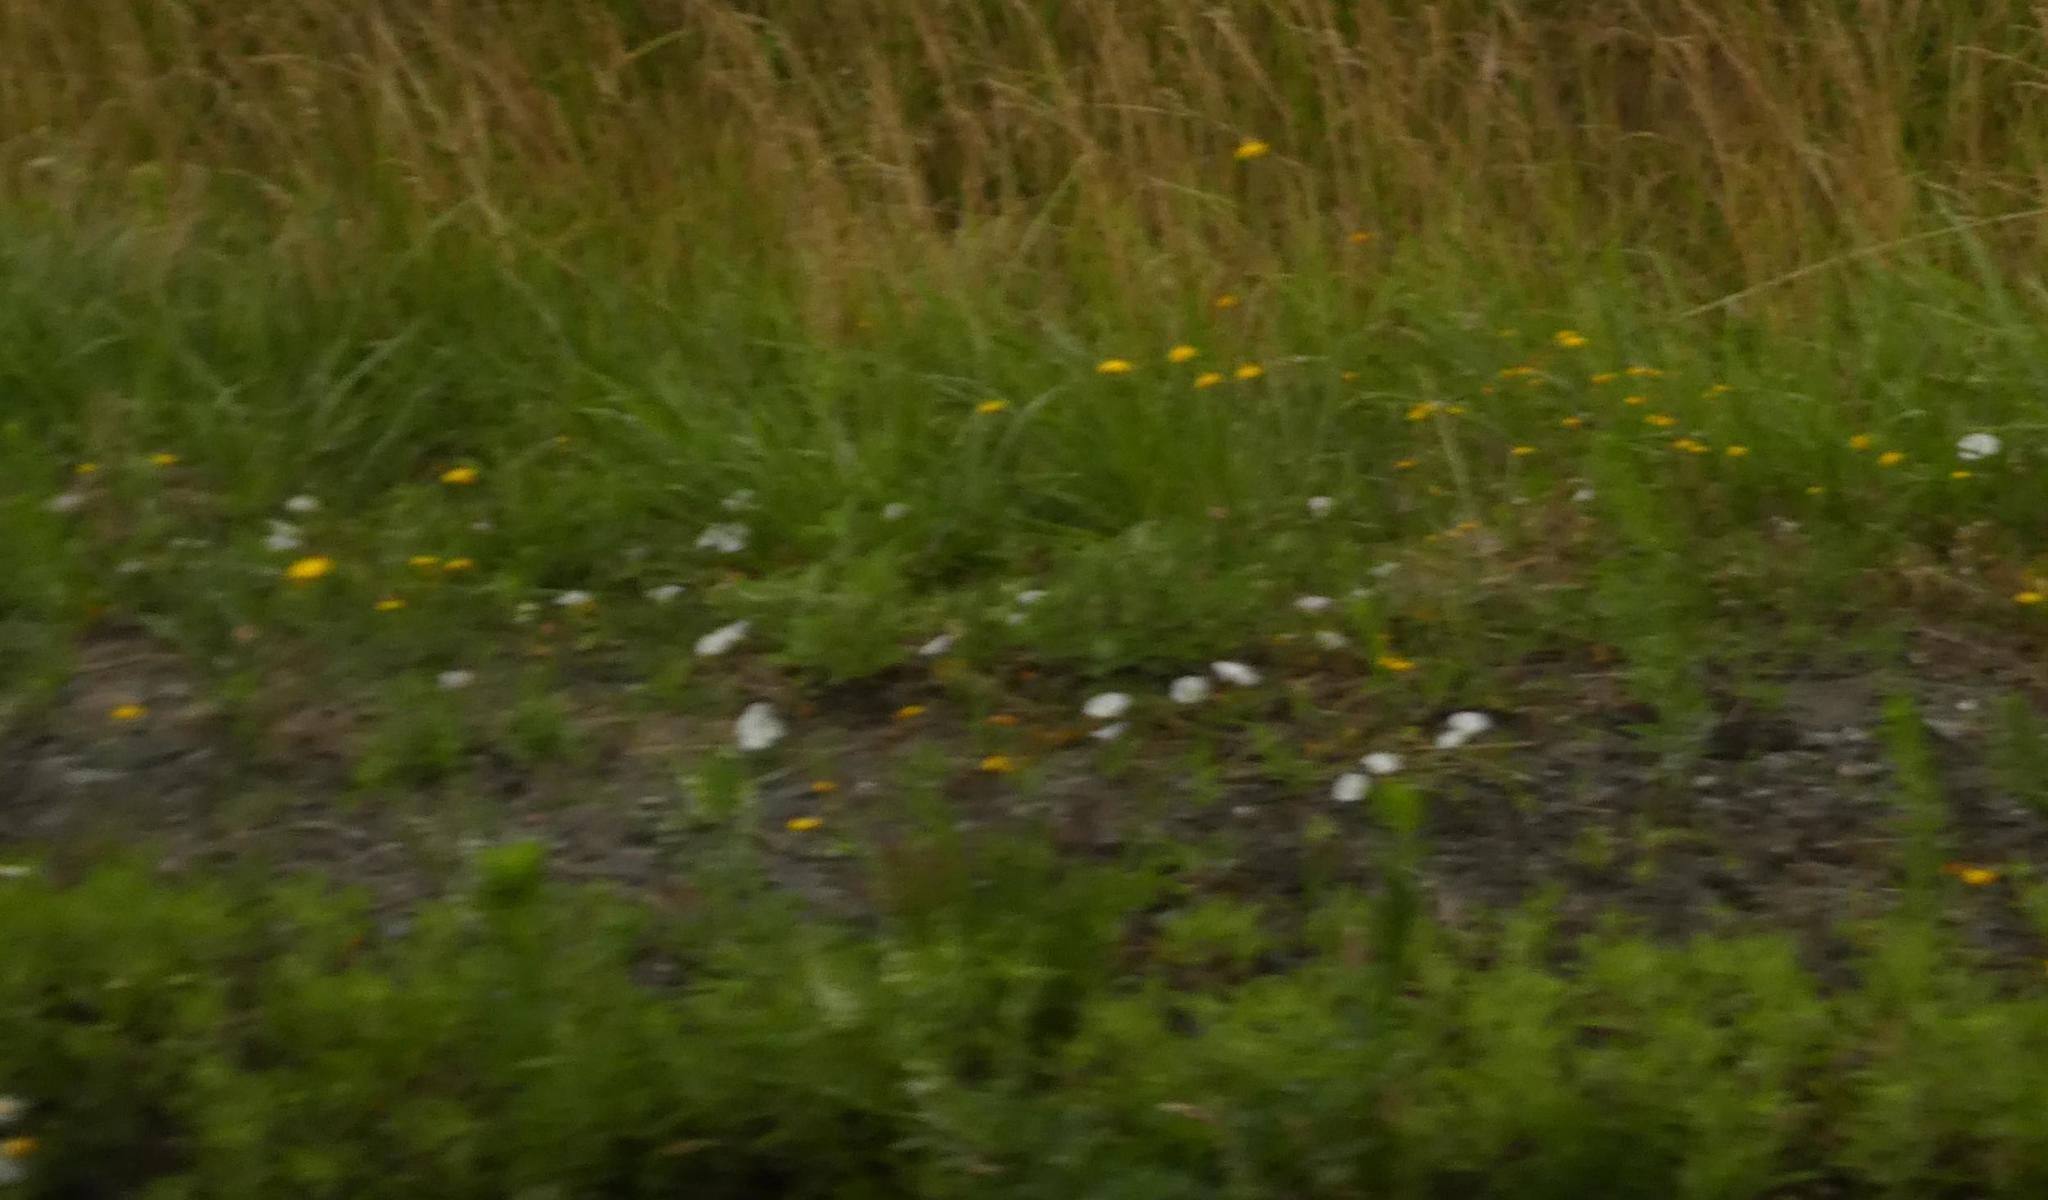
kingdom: Plantae
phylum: Tracheophyta
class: Magnoliopsida
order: Solanales
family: Convolvulaceae
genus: Convolvulus
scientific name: Convolvulus arvensis
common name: Field bindweed
